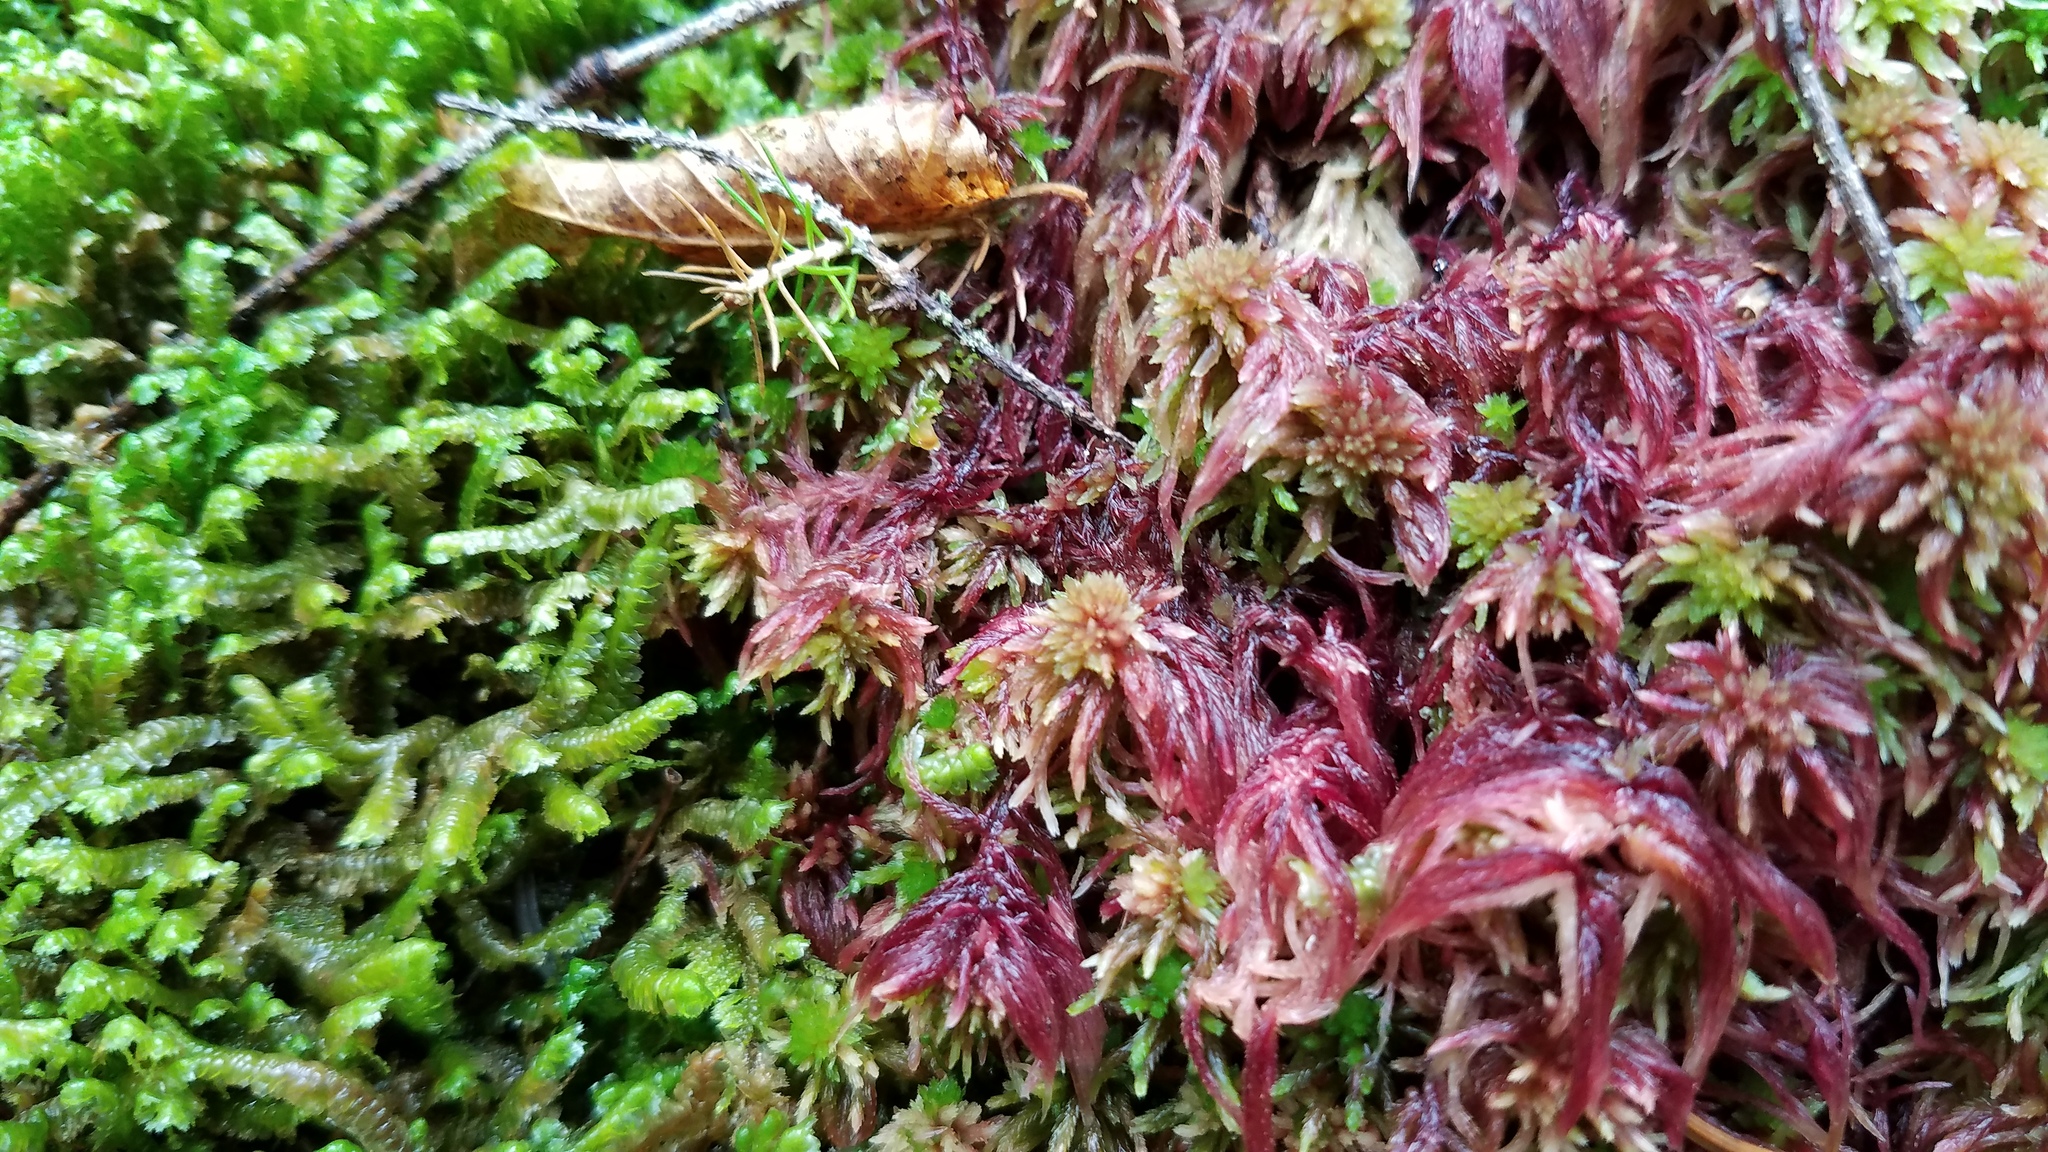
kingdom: Plantae
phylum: Bryophyta
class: Sphagnopsida
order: Sphagnales
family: Sphagnaceae
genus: Sphagnum
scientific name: Sphagnum russowii
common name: Russow's peat moss
